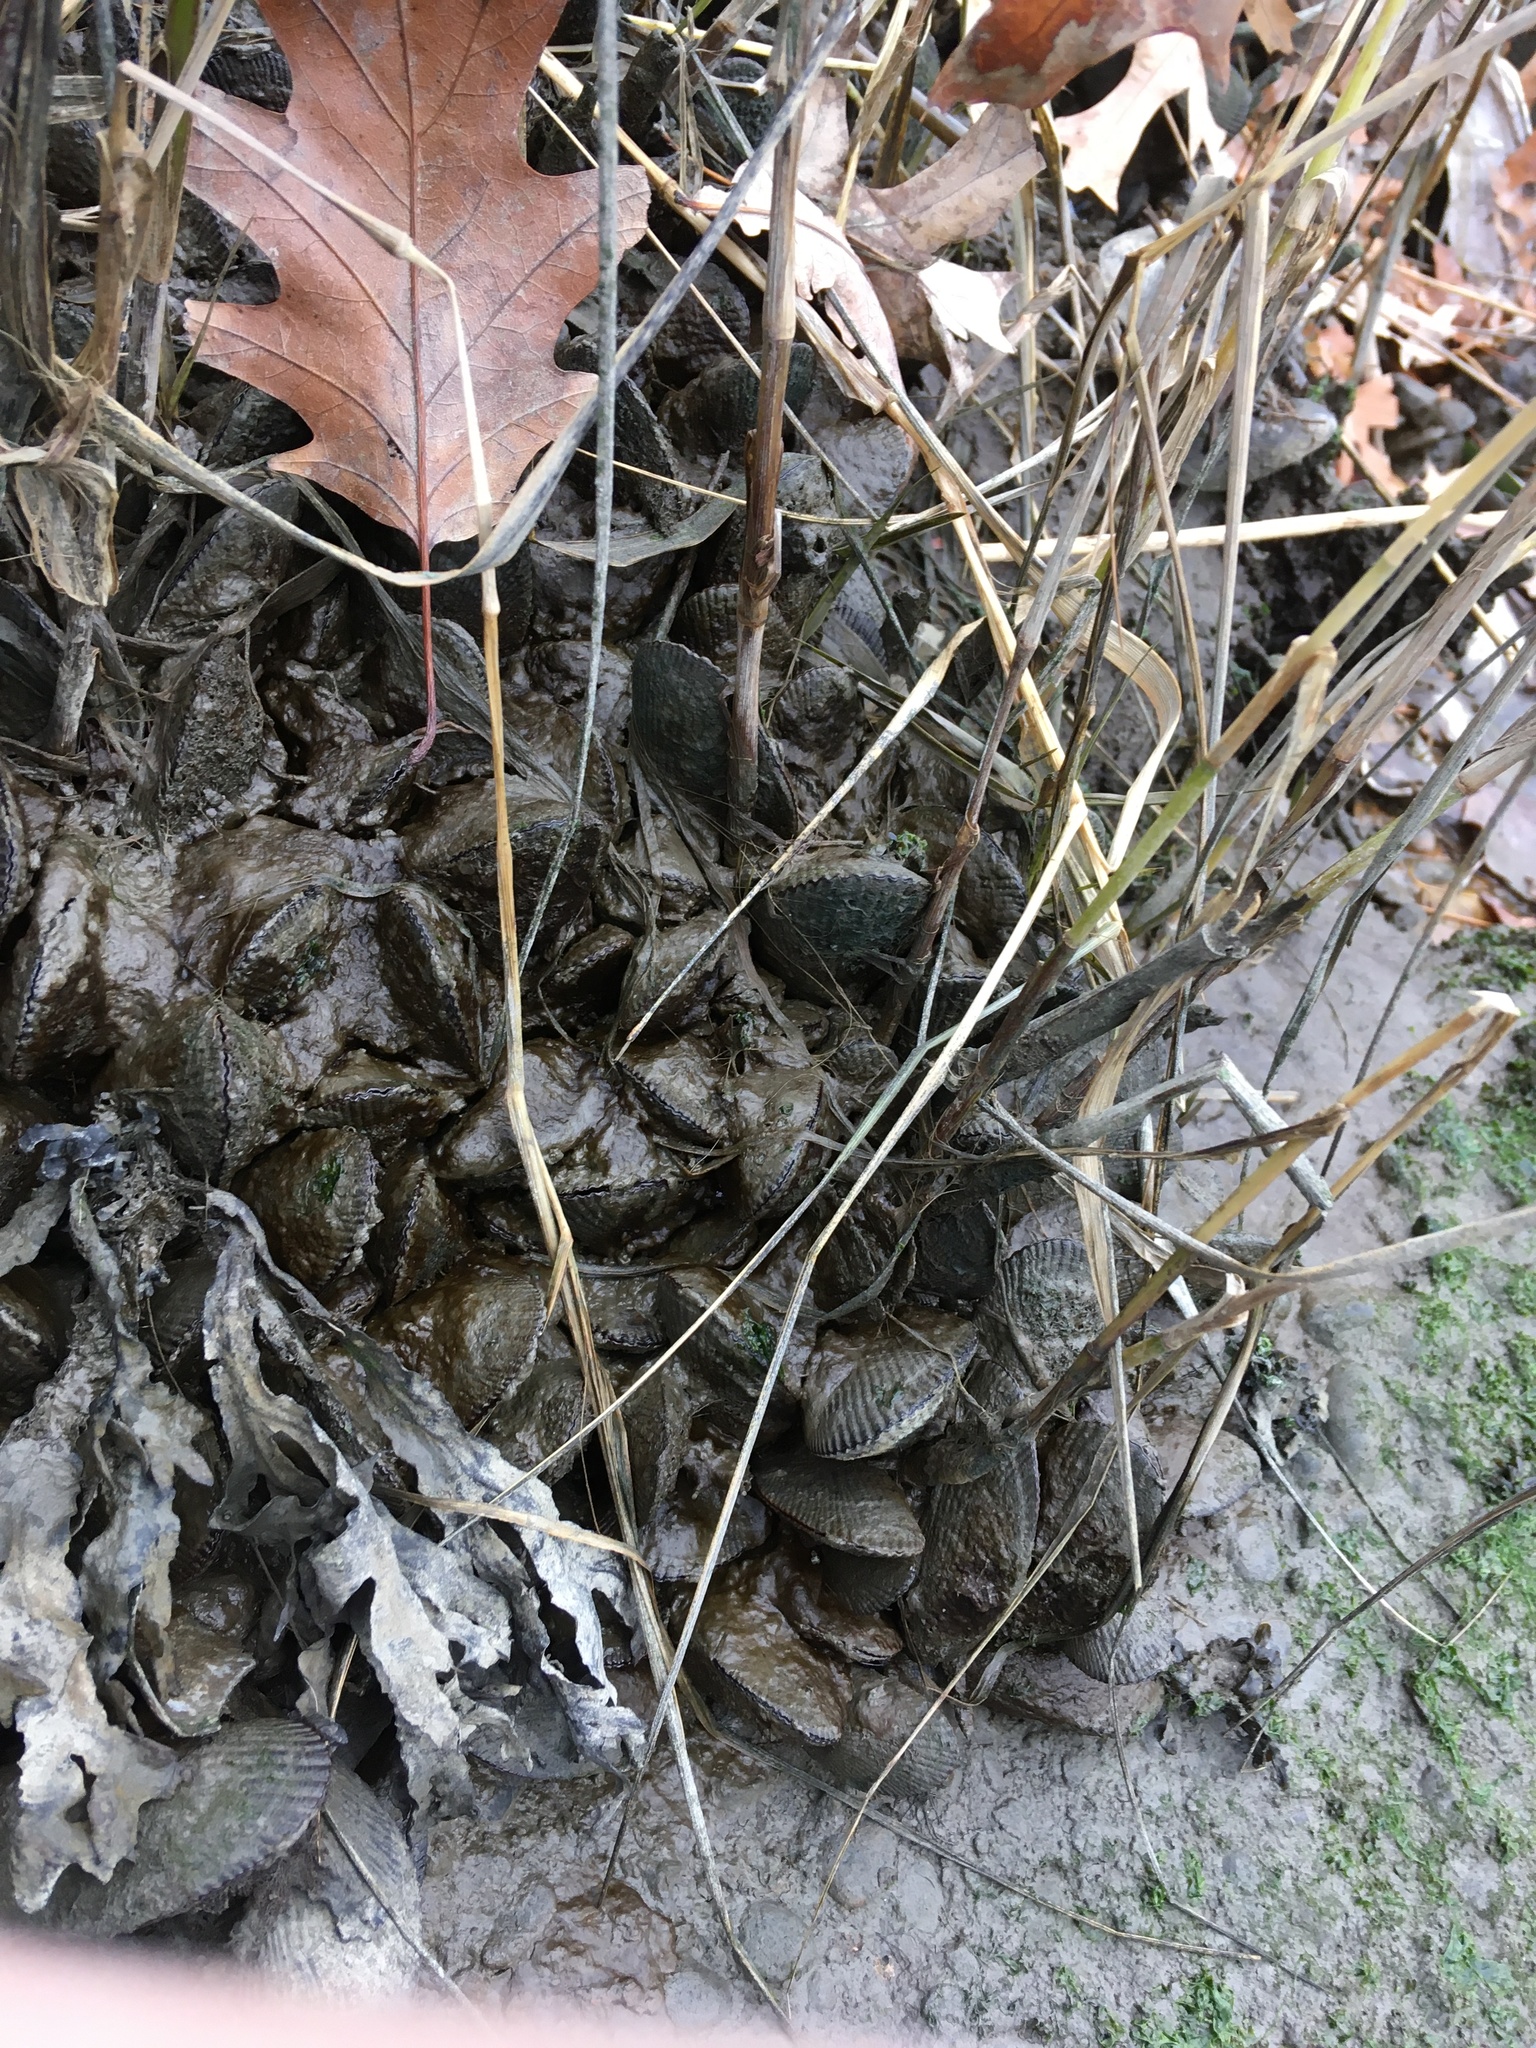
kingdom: Animalia
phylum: Mollusca
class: Bivalvia
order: Mytilida
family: Mytilidae
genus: Geukensia
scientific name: Geukensia demissa
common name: Ribbed mussel
